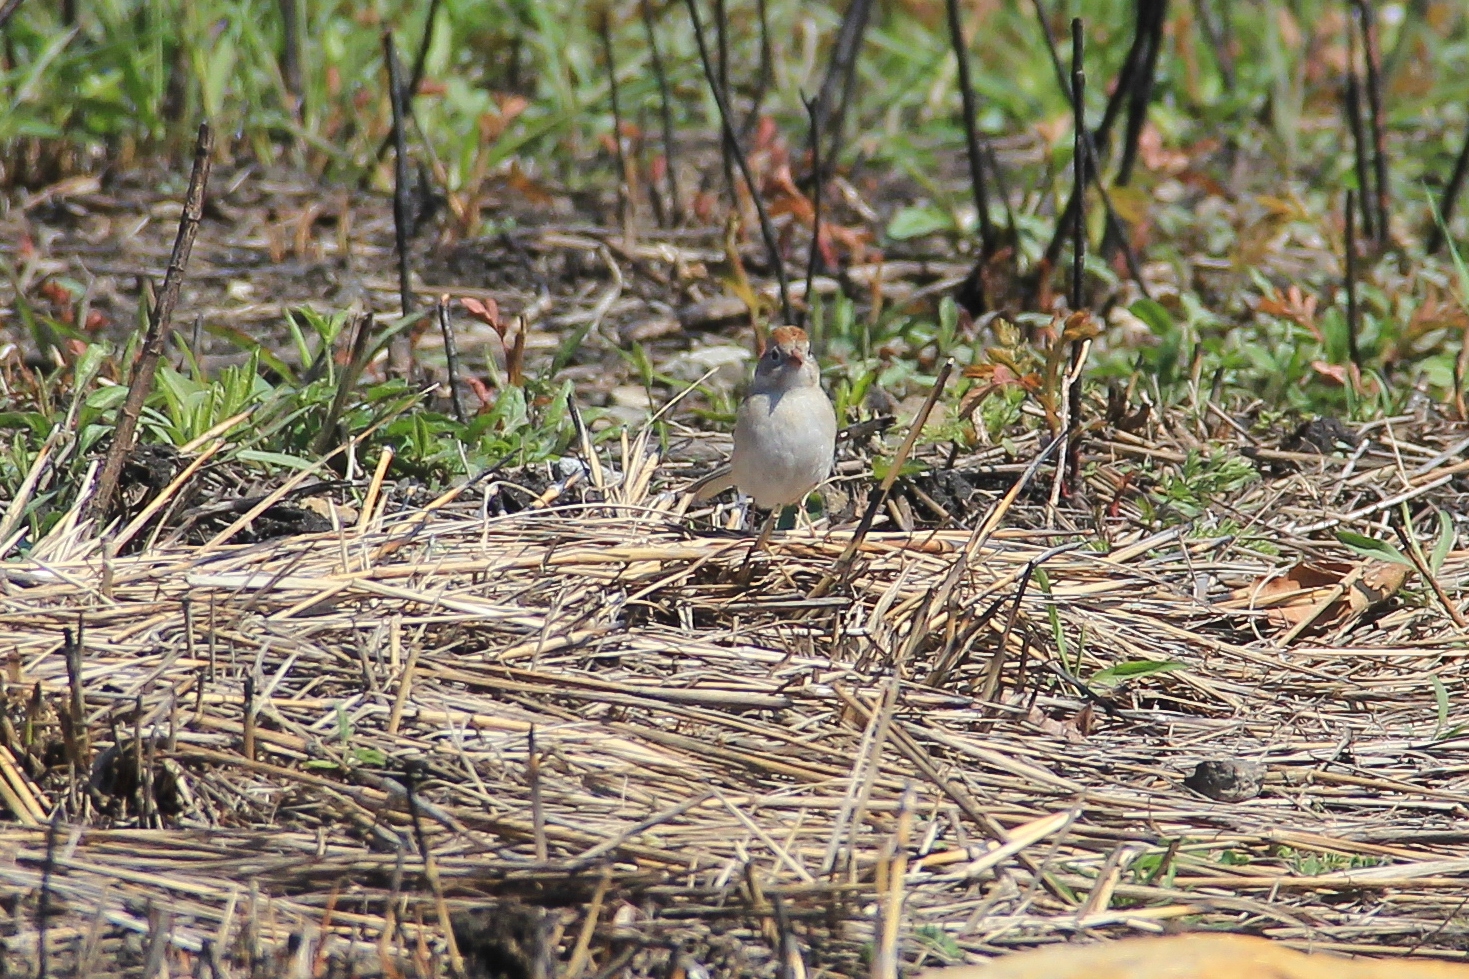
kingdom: Animalia
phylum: Chordata
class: Aves
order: Passeriformes
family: Passerellidae
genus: Spizella
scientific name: Spizella pusilla
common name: Field sparrow
